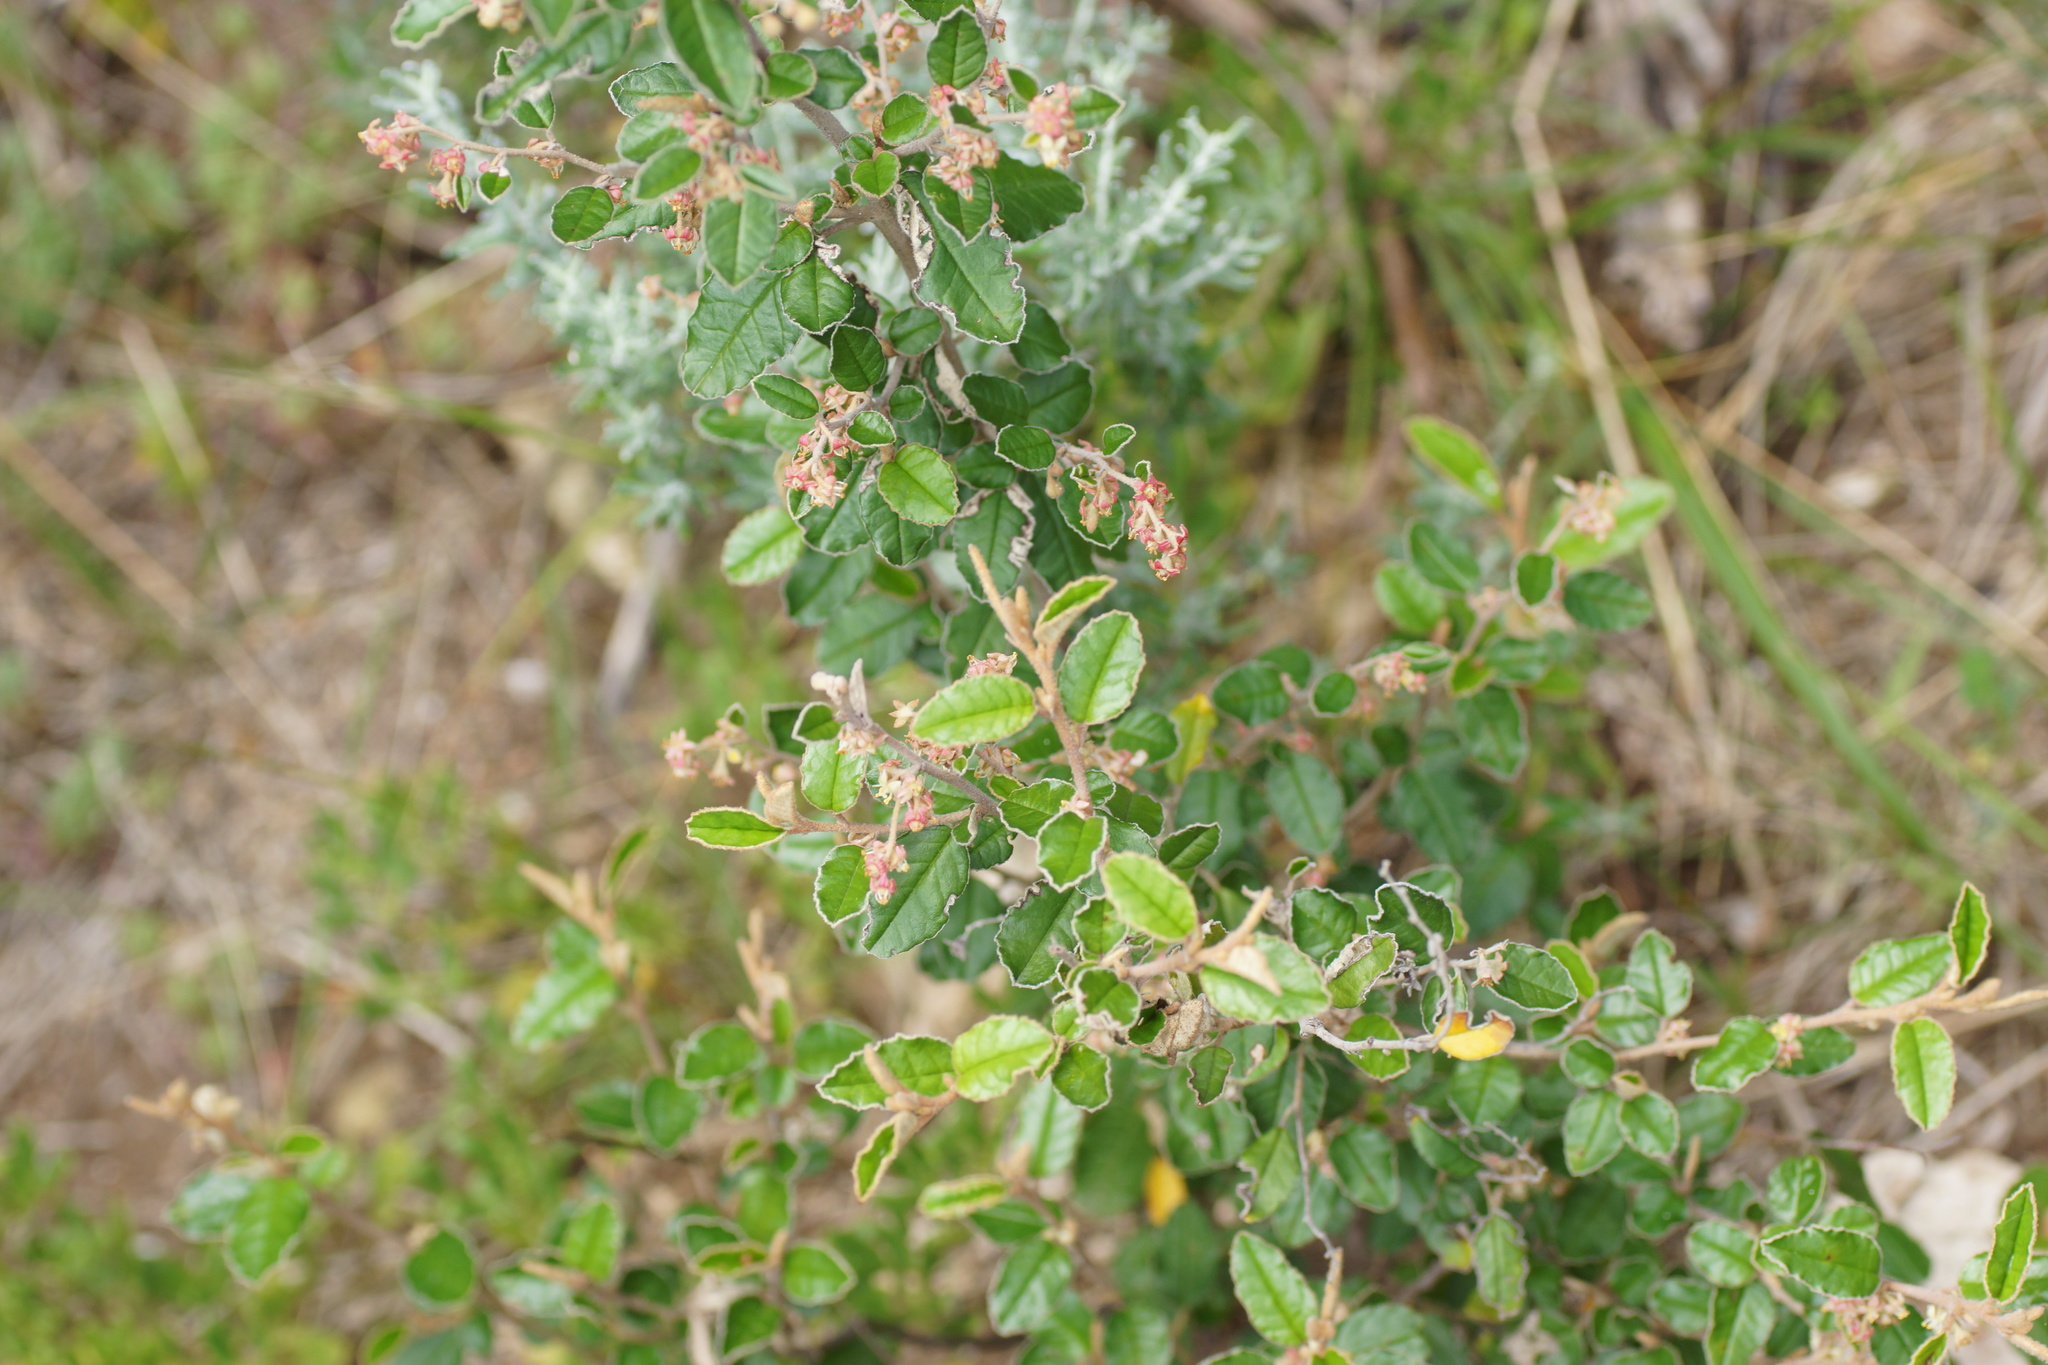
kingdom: Plantae
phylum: Tracheophyta
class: Magnoliopsida
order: Rosales
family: Rhamnaceae
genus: Pomaderris
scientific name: Pomaderris paniculosa
